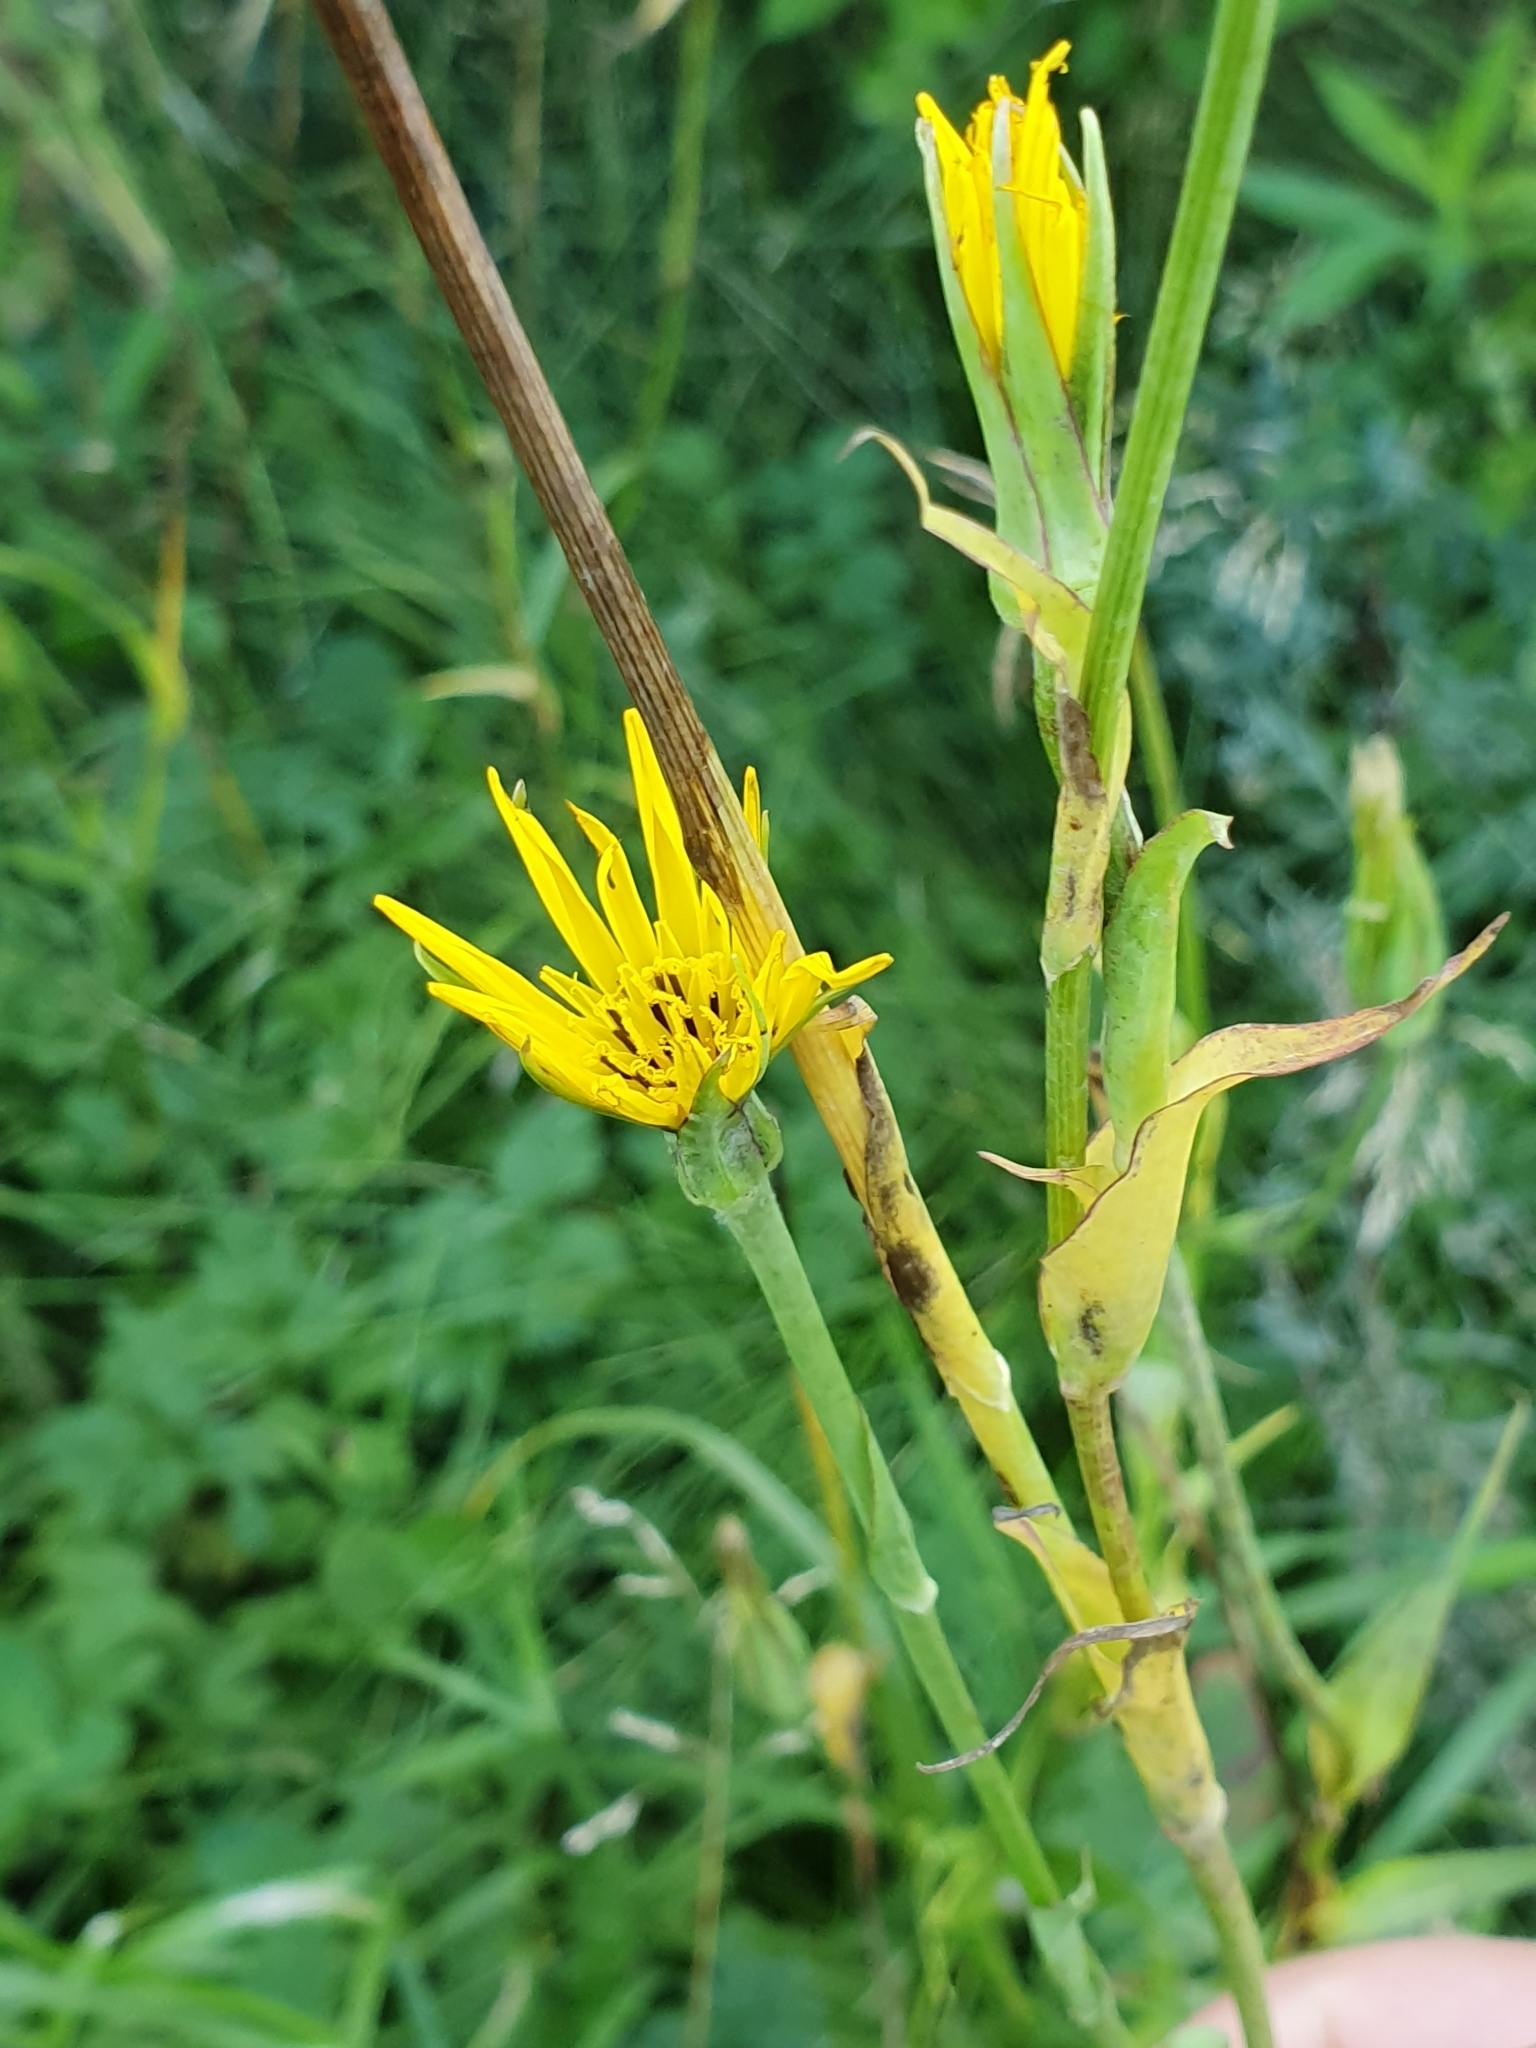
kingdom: Plantae
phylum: Tracheophyta
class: Magnoliopsida
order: Asterales
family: Asteraceae
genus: Tragopogon
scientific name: Tragopogon pratensis
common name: Goat's-beard
